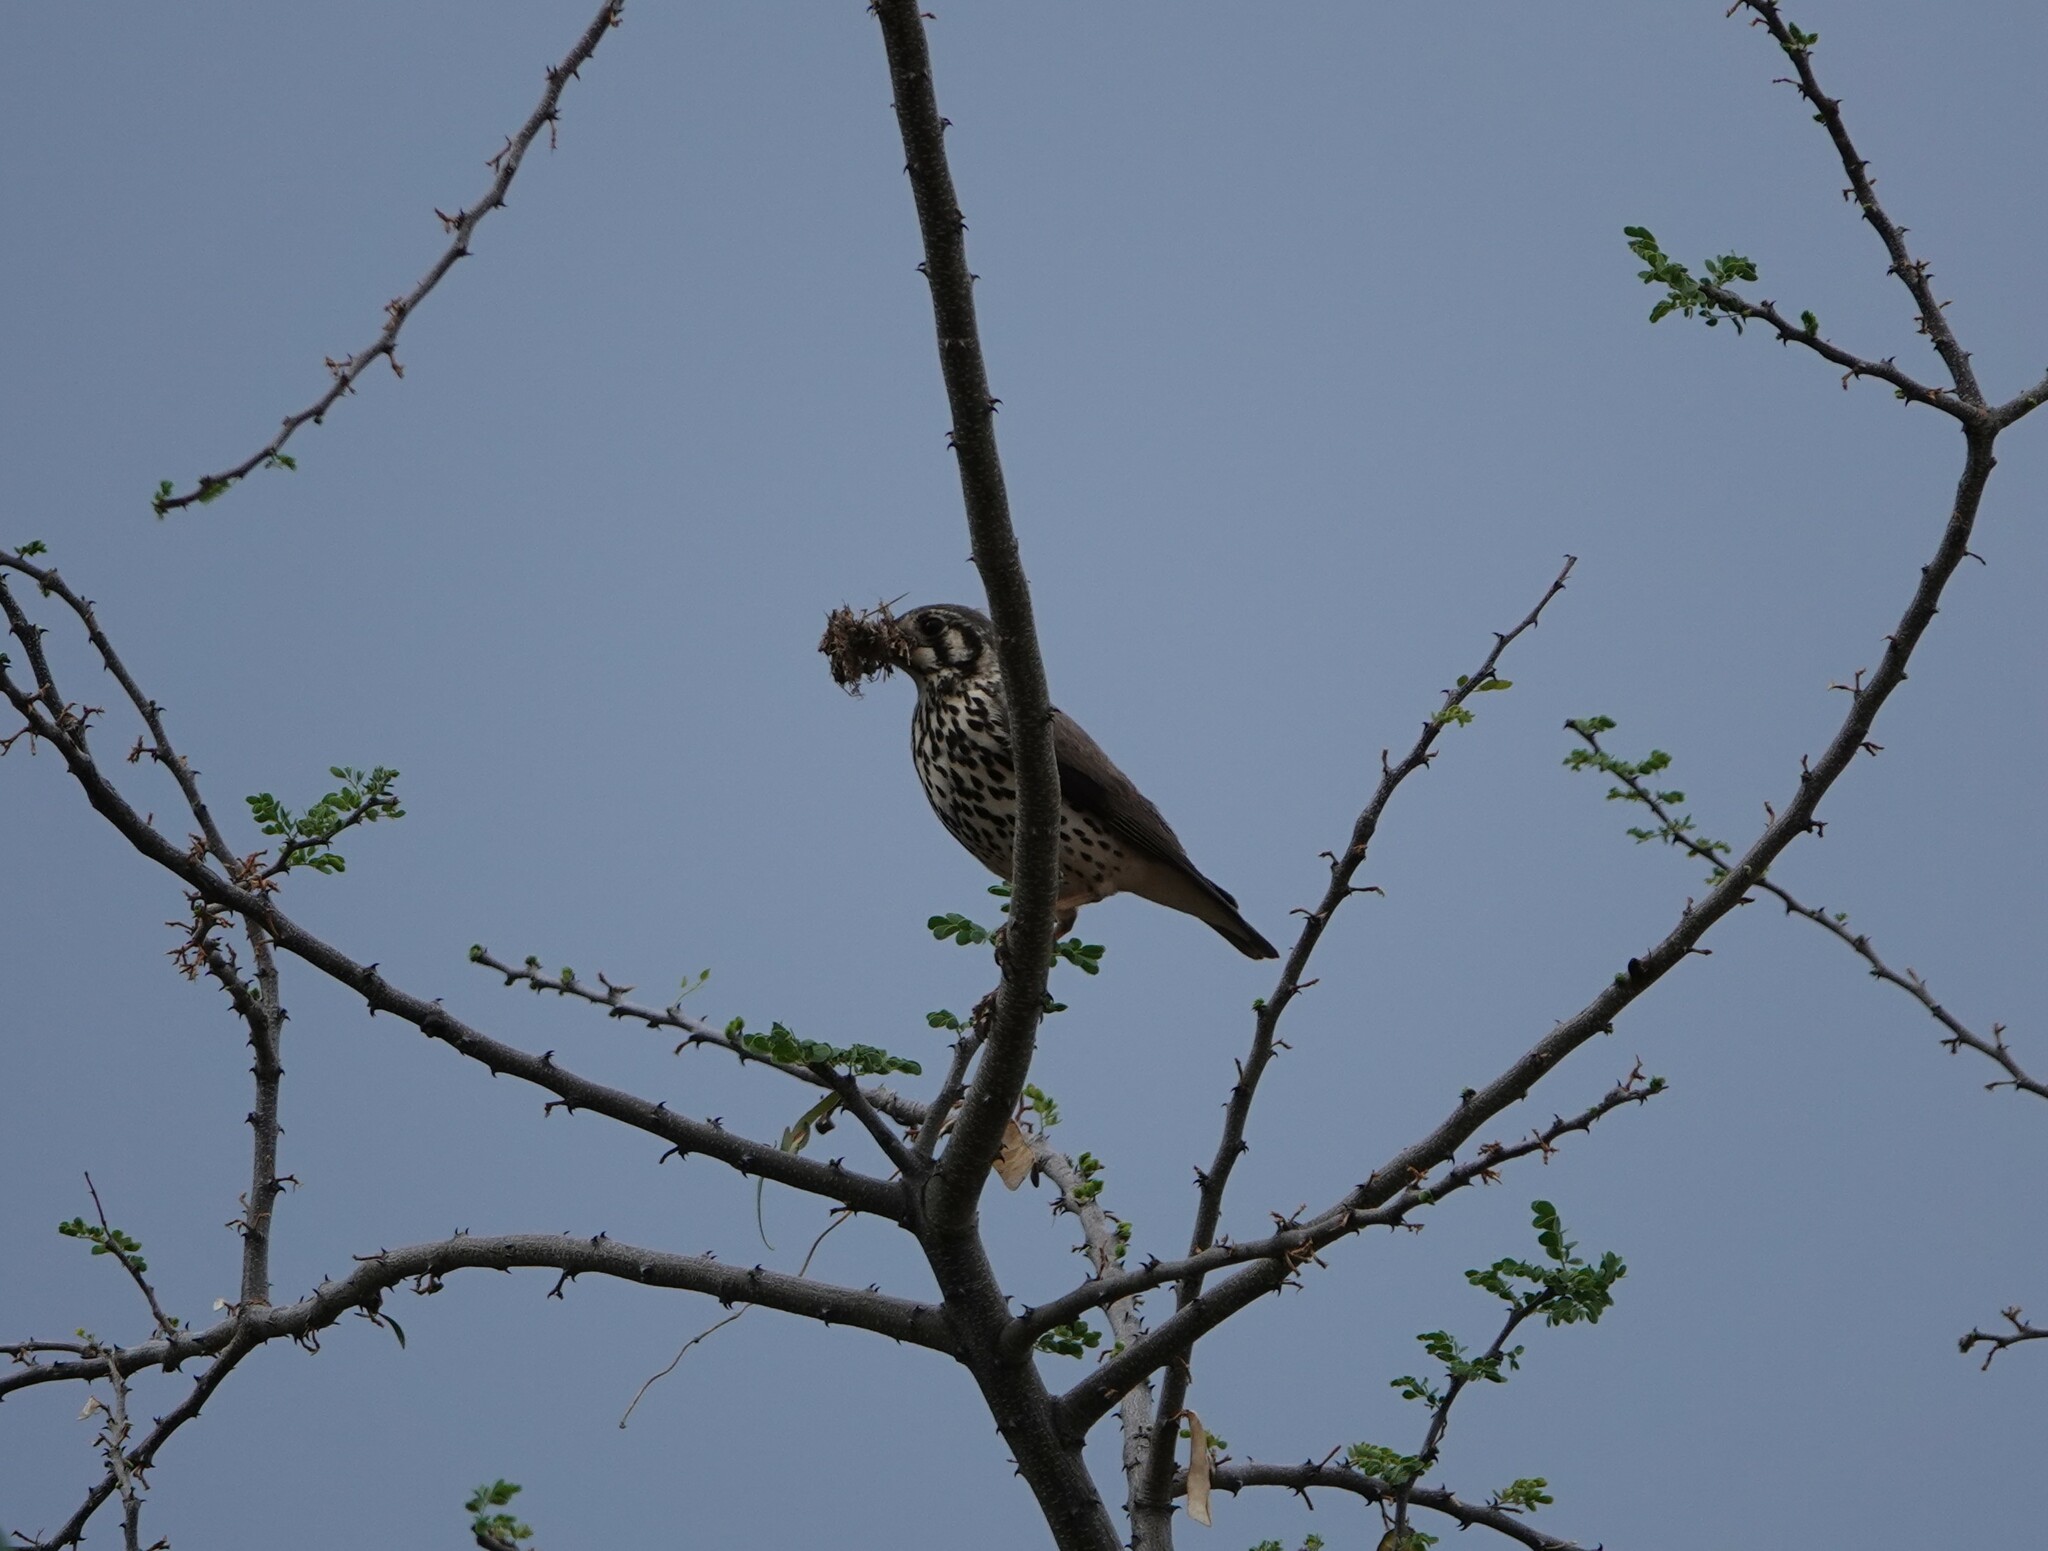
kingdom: Animalia
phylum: Chordata
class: Aves
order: Passeriformes
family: Turdidae
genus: Psophocichla
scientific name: Psophocichla litsitsirupa
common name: Groundscraper thrush
